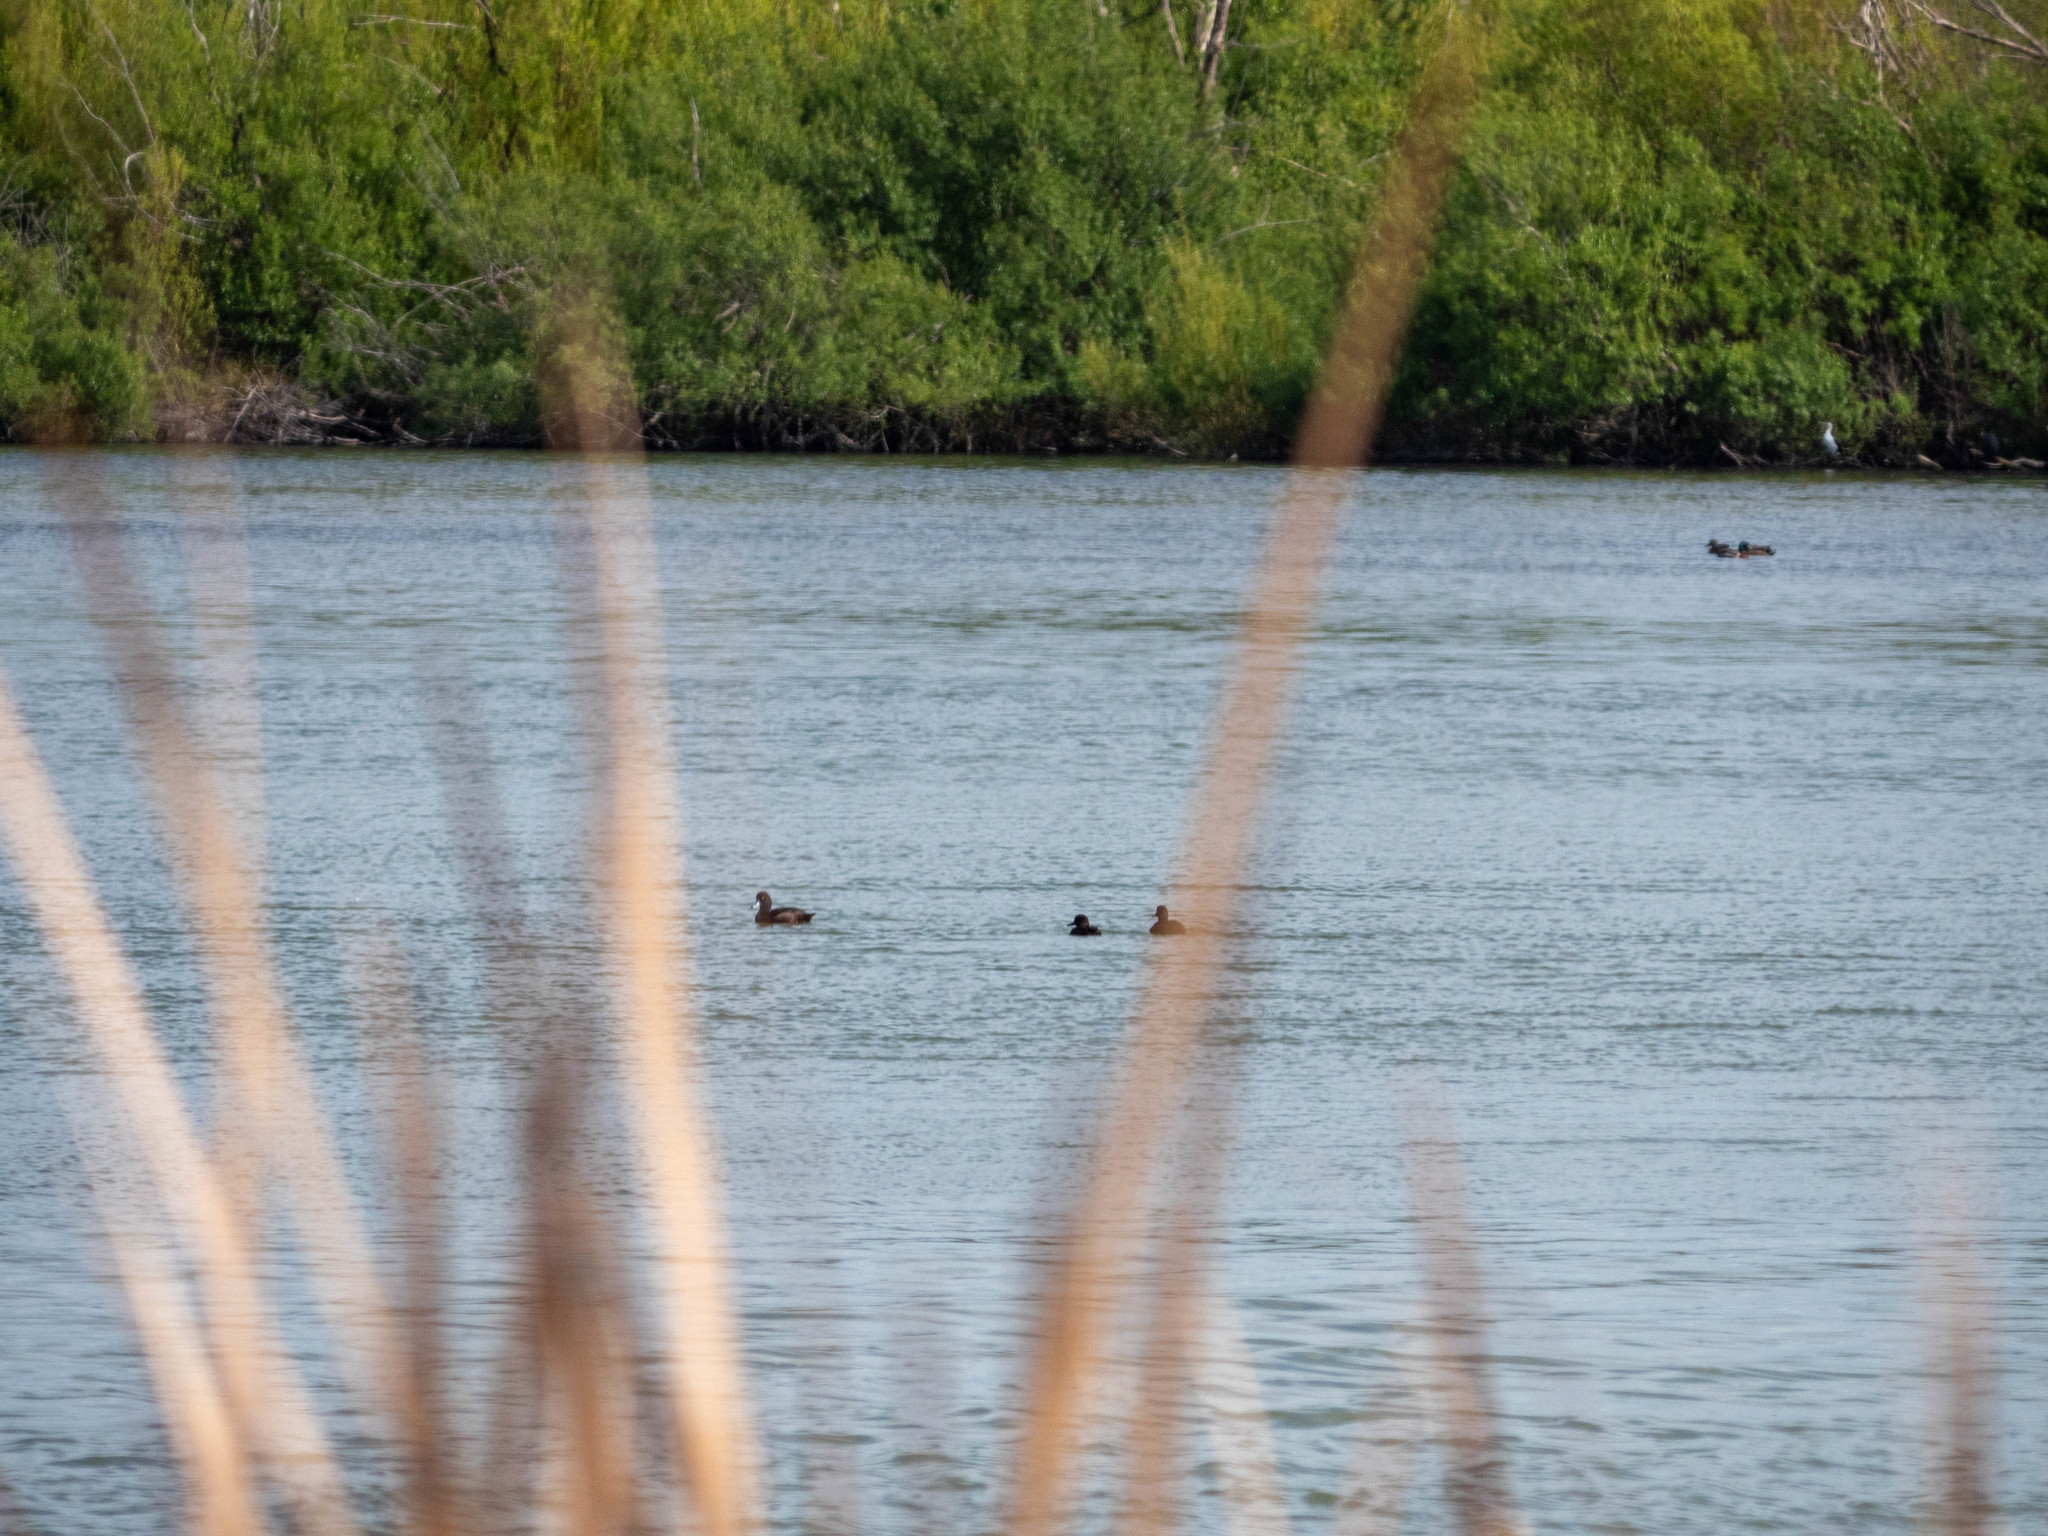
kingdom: Animalia
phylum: Chordata
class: Aves
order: Anseriformes
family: Anatidae
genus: Aythya
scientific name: Aythya novaeseelandiae
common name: New zealand scaup
